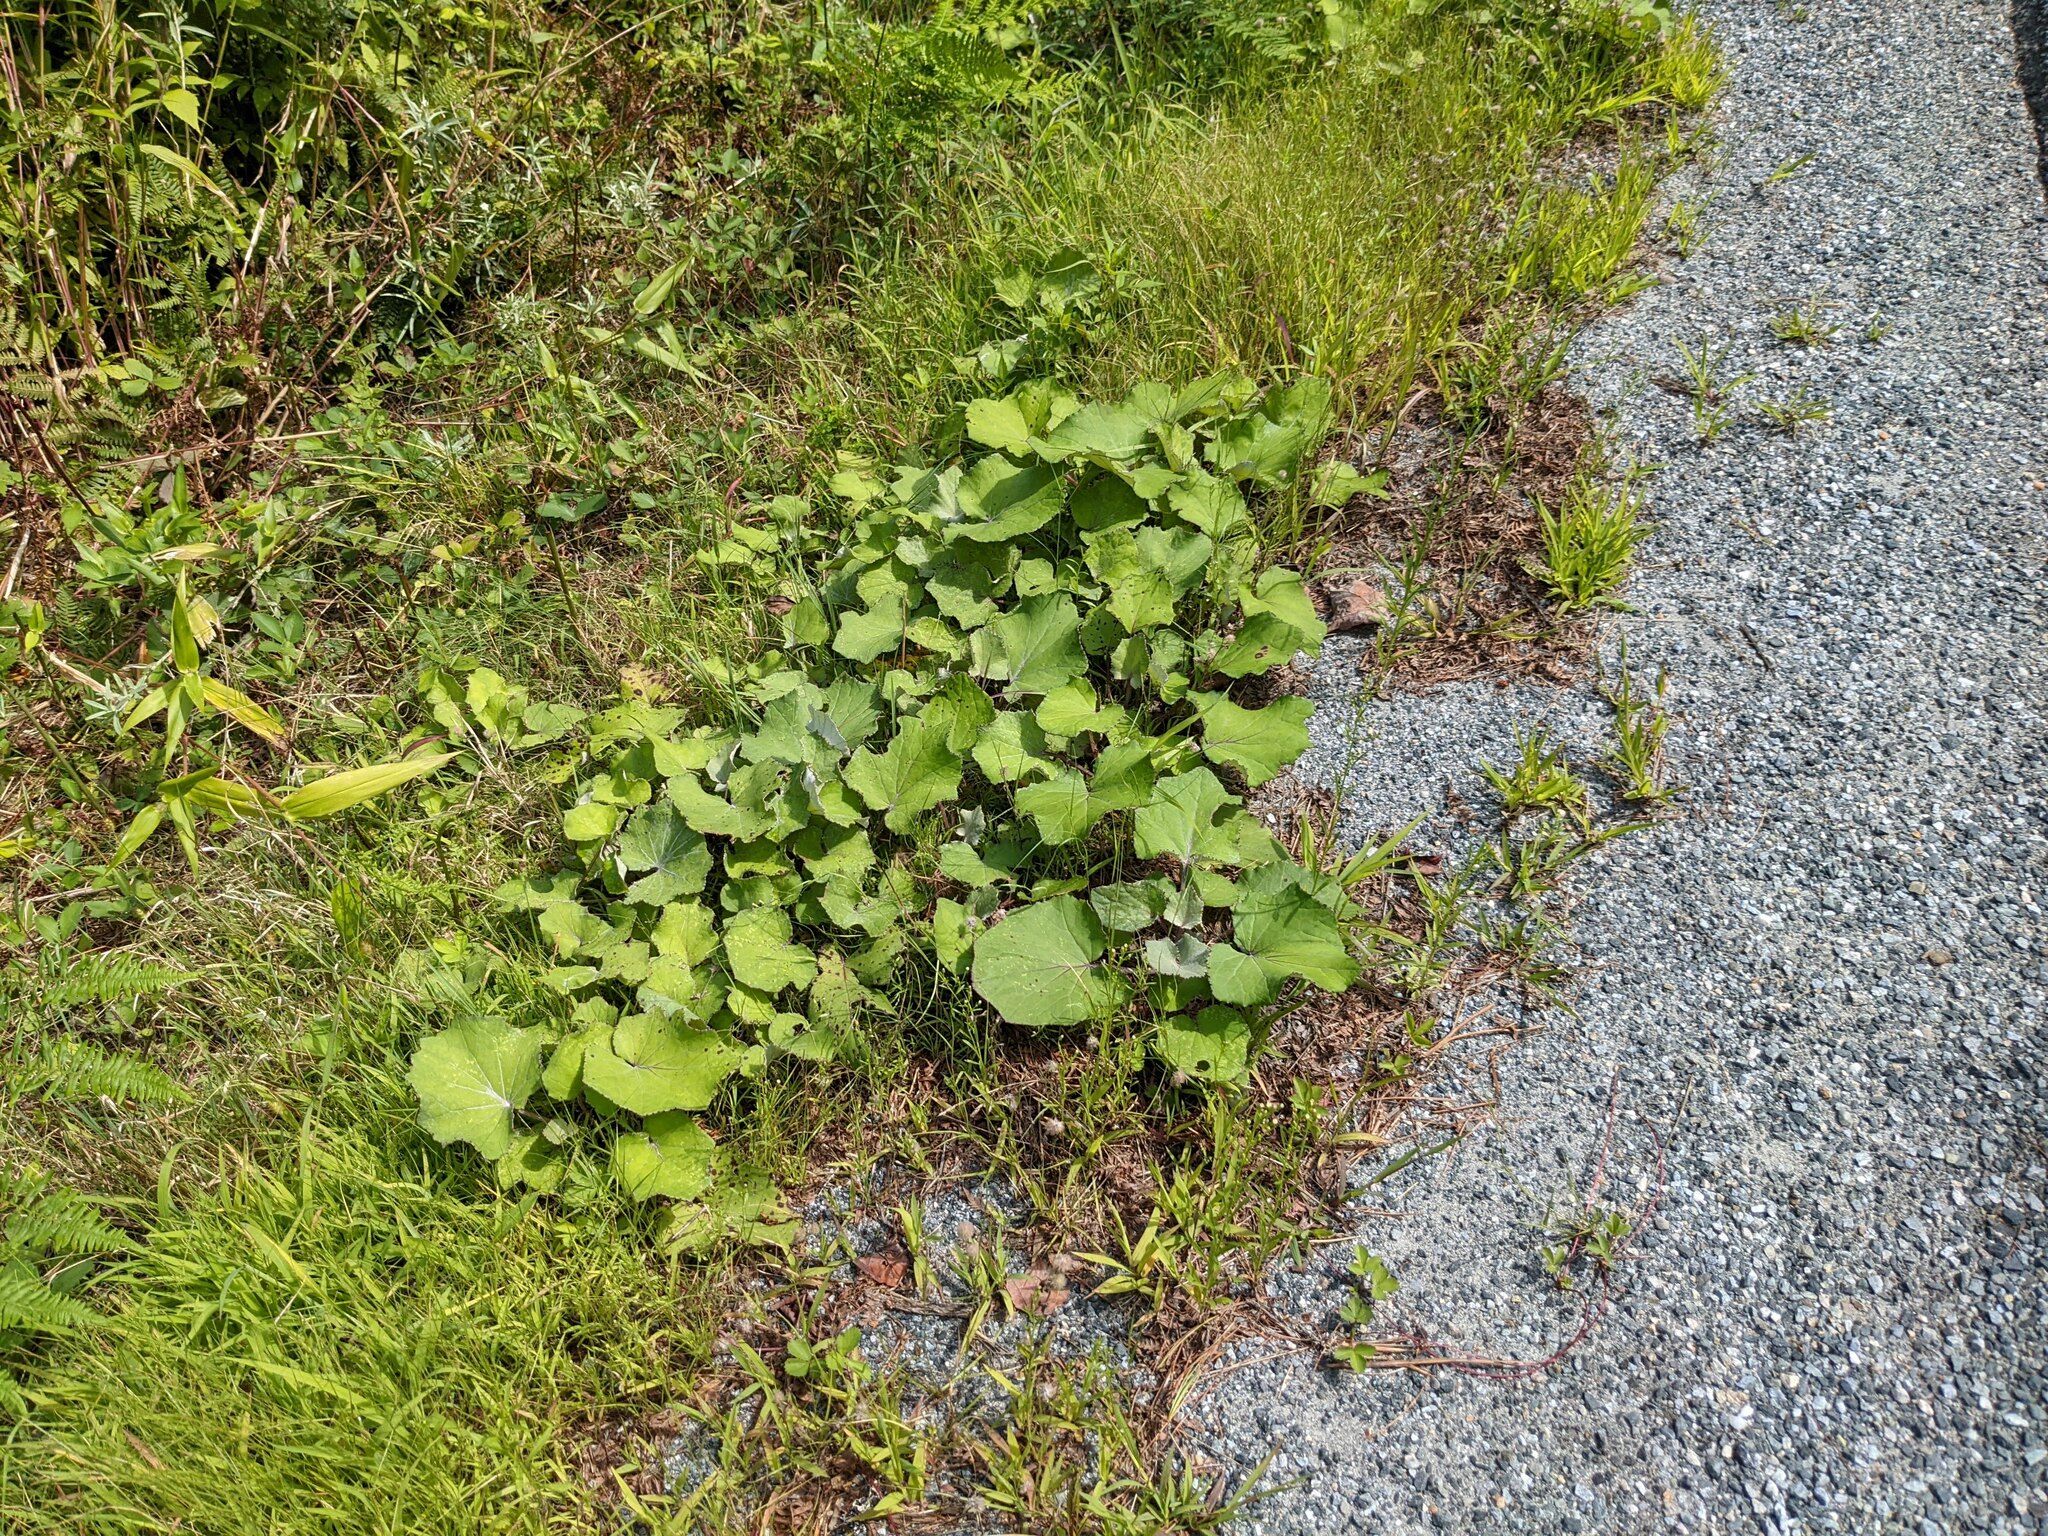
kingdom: Plantae
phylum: Tracheophyta
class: Magnoliopsida
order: Asterales
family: Asteraceae
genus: Tussilago
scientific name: Tussilago farfara
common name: Coltsfoot
